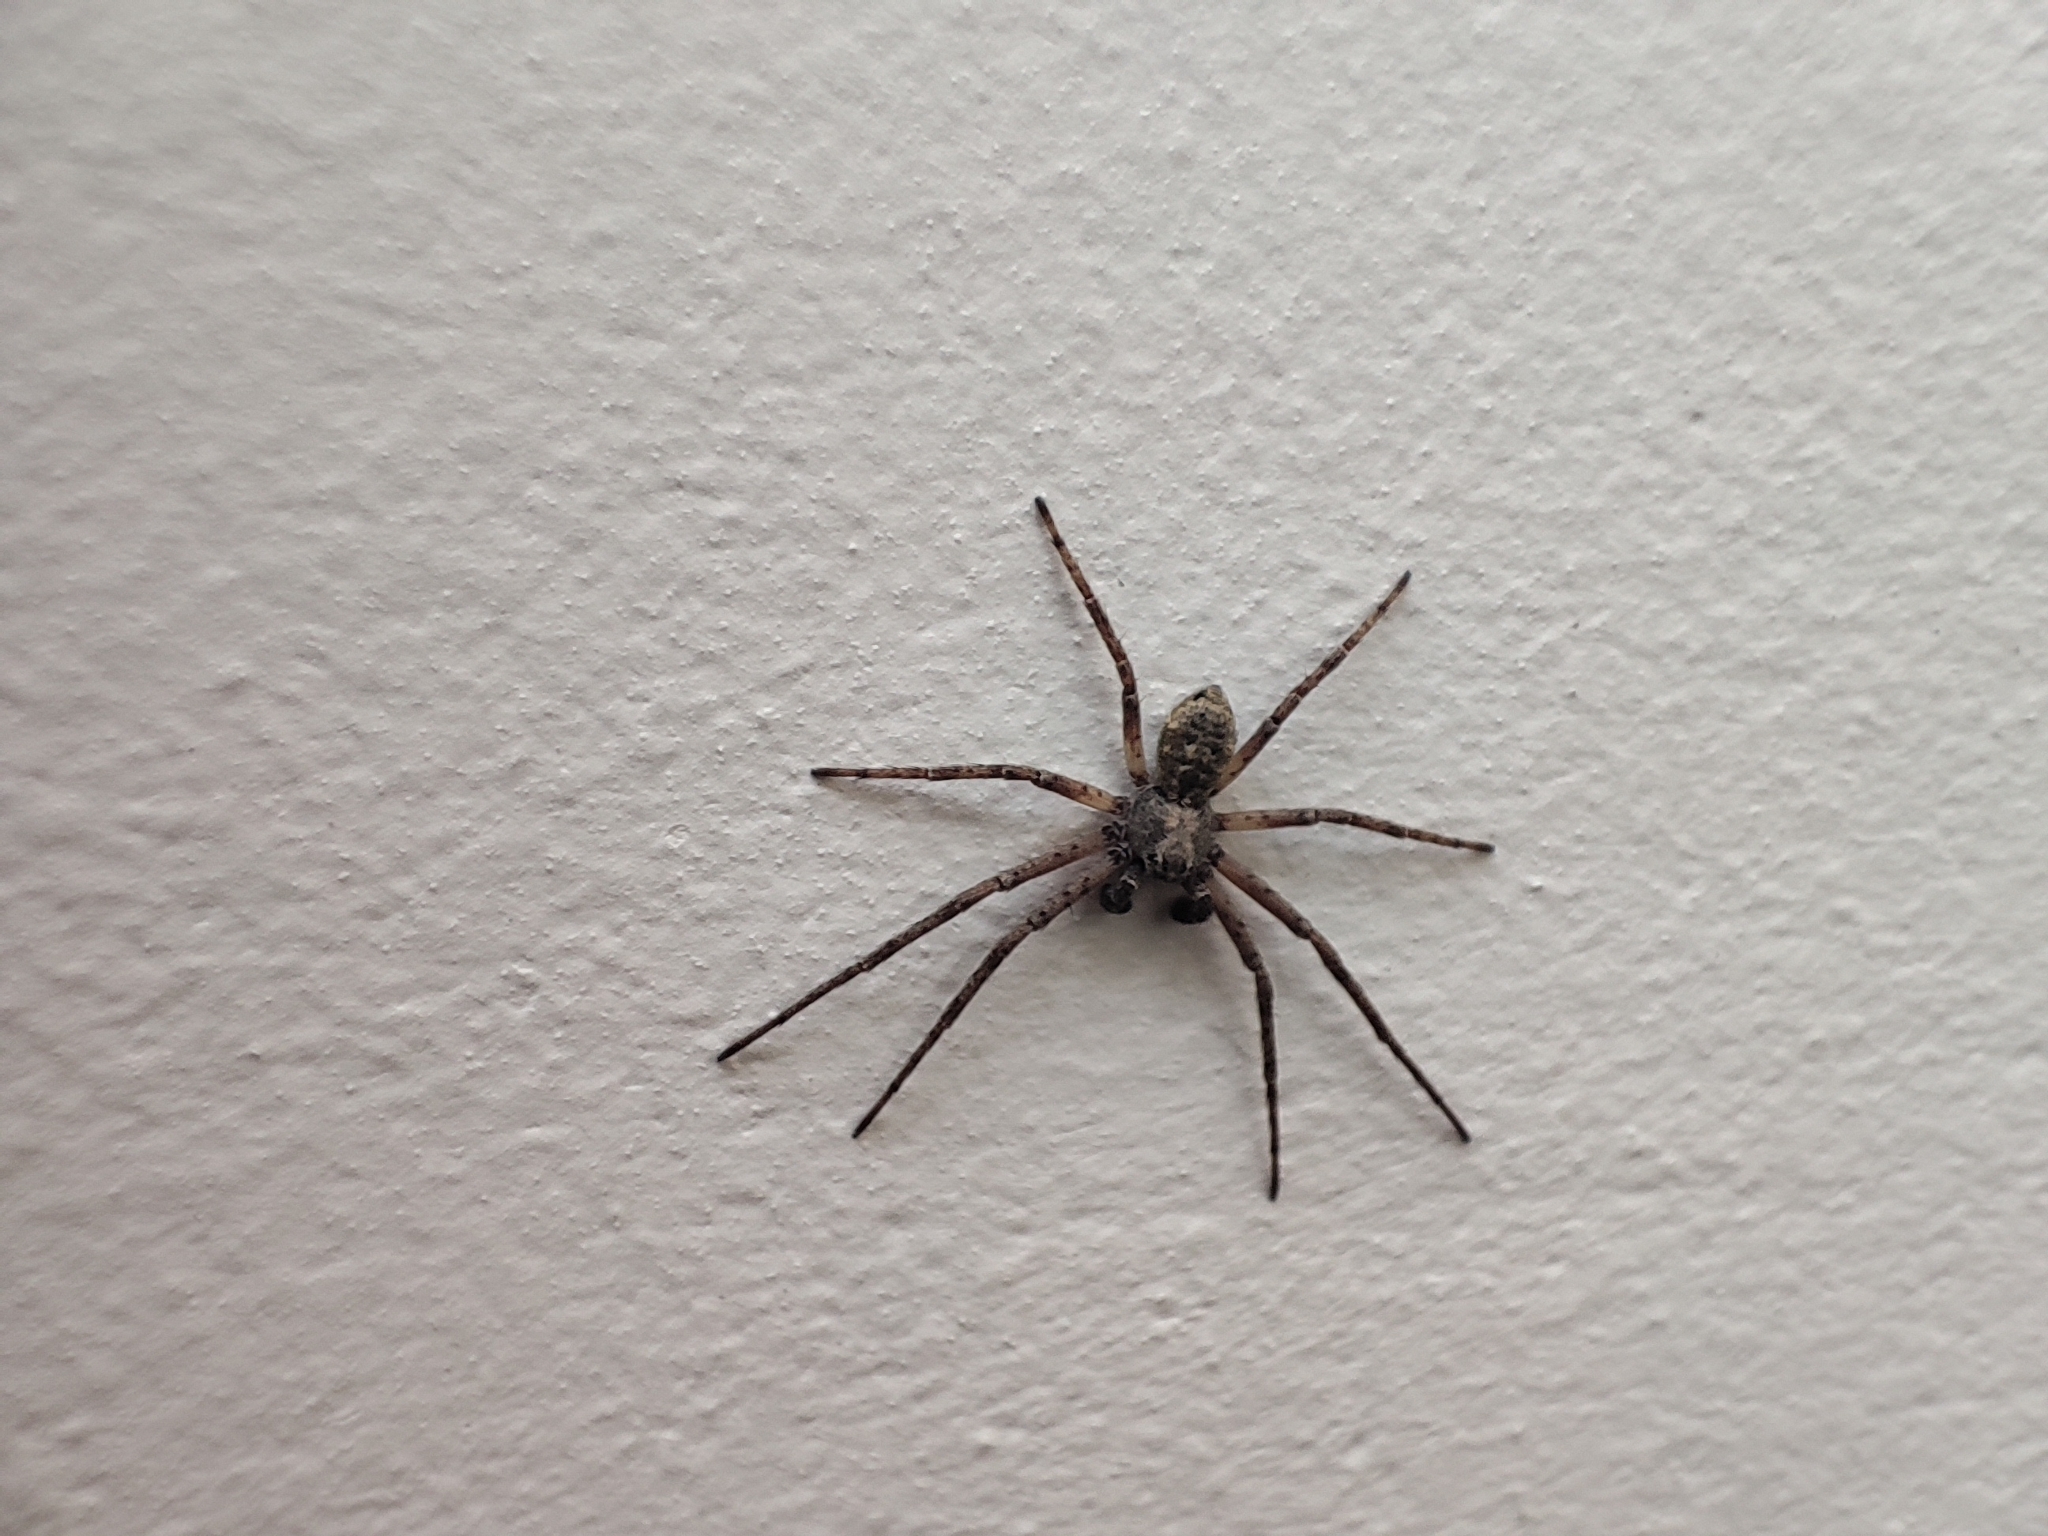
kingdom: Animalia
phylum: Arthropoda
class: Arachnida
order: Araneae
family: Philodromidae
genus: Philodromus
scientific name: Philodromus
